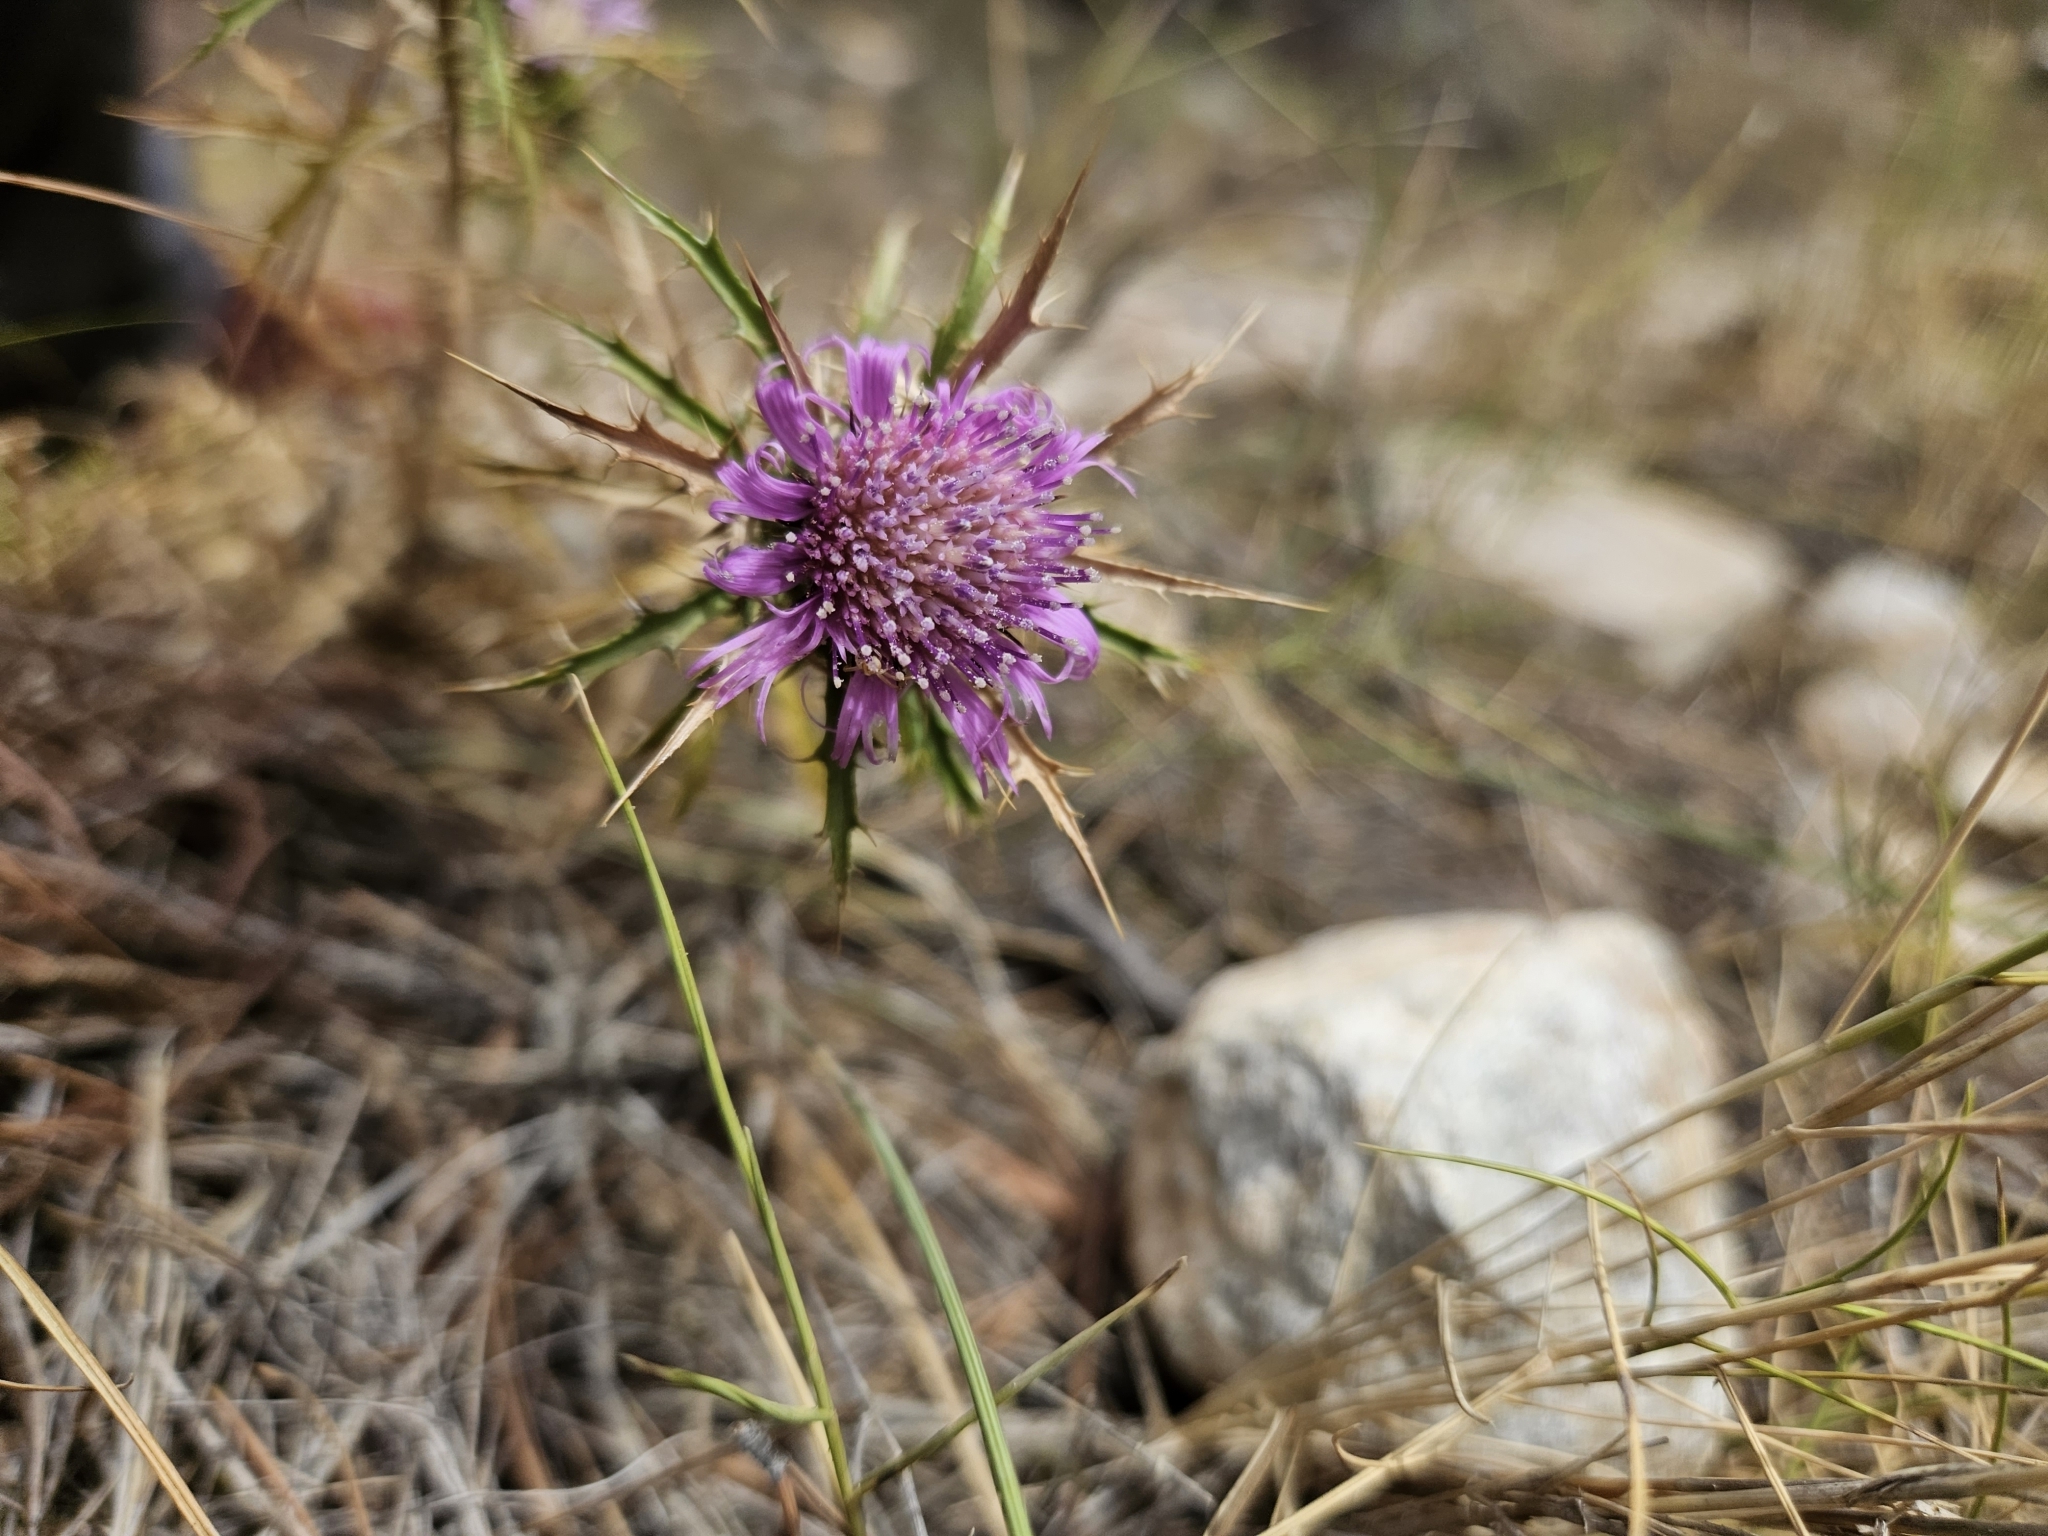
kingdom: Plantae
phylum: Tracheophyta
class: Magnoliopsida
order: Asterales
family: Asteraceae
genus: Atractylis
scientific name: Atractylis humilis
